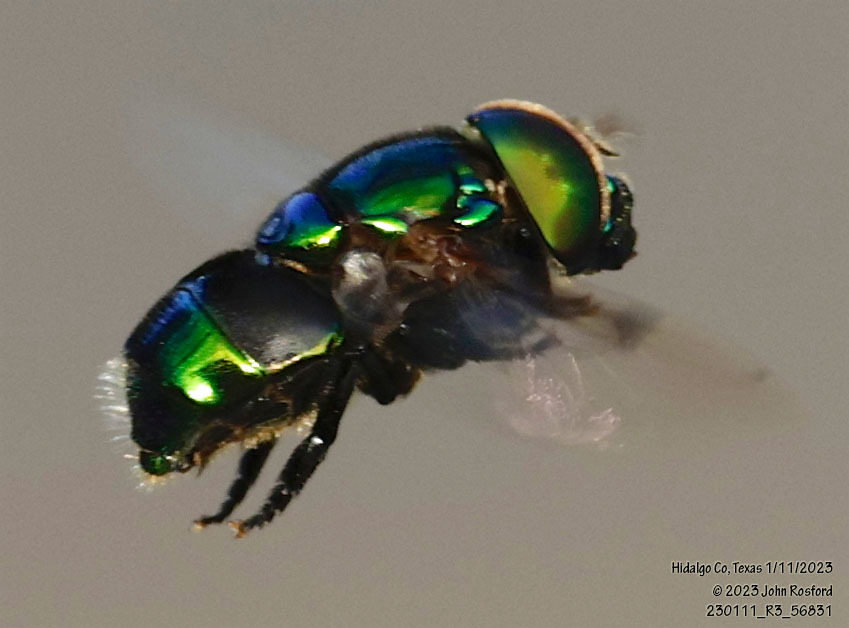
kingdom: Animalia
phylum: Arthropoda
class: Insecta
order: Diptera
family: Syrphidae
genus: Ornidia
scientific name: Ornidia obesa
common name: Syrphid fly
